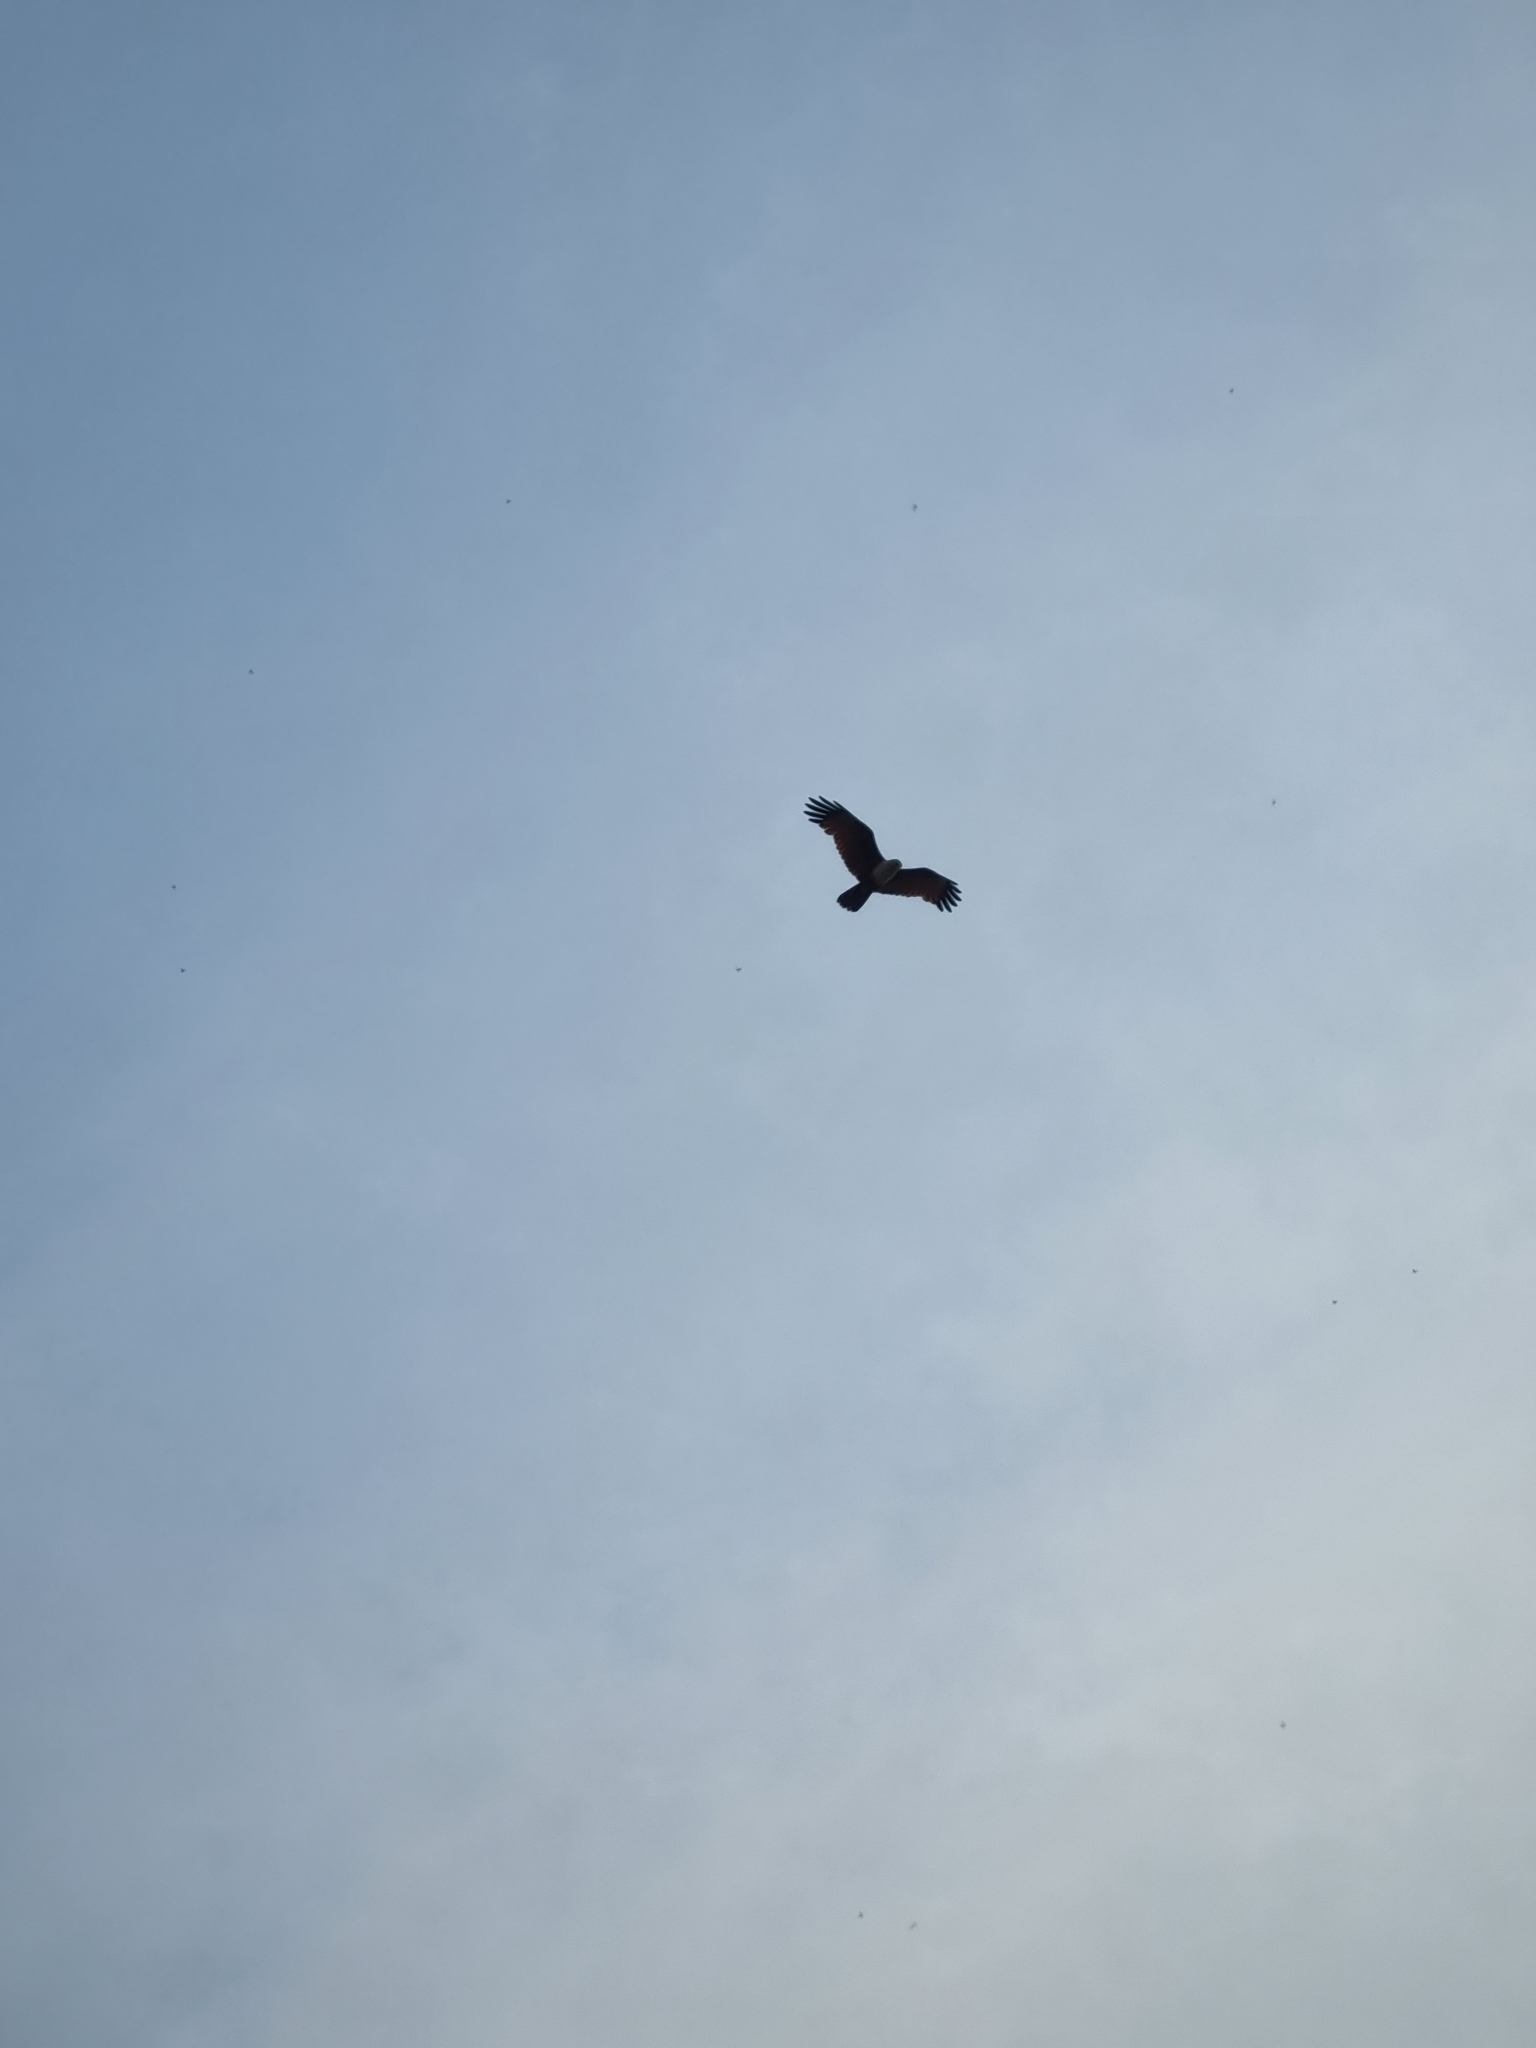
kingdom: Animalia
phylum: Chordata
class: Aves
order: Accipitriformes
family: Accipitridae
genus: Haliastur
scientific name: Haliastur indus
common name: Brahminy kite
